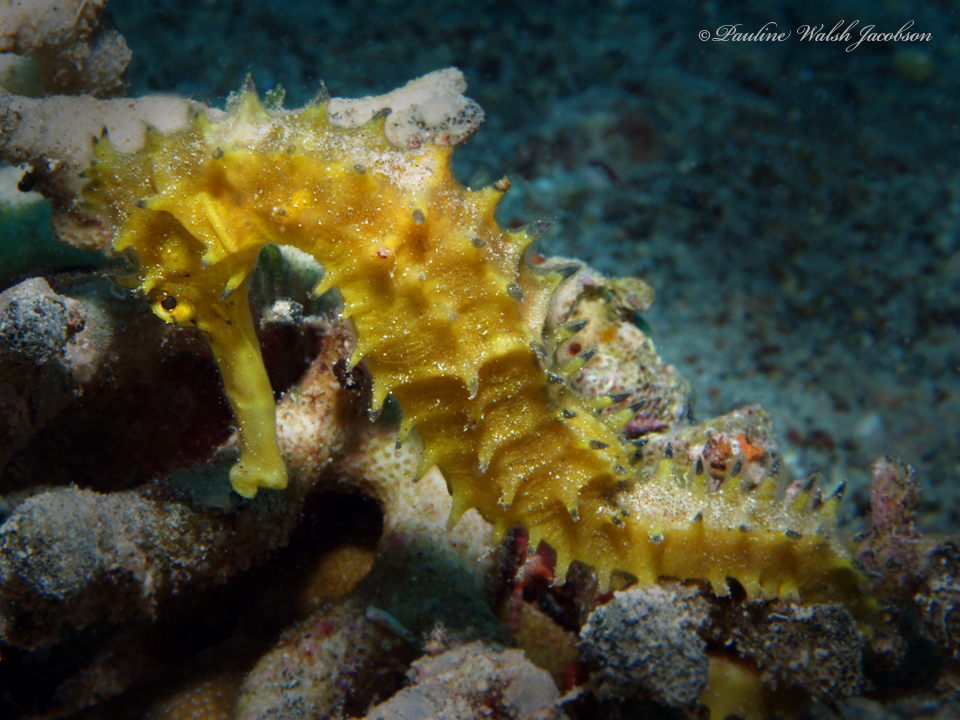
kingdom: Animalia
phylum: Chordata
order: Syngnathiformes
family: Syngnathidae
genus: Hippocampus
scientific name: Hippocampus jayakari
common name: Jayakar's seahorse
